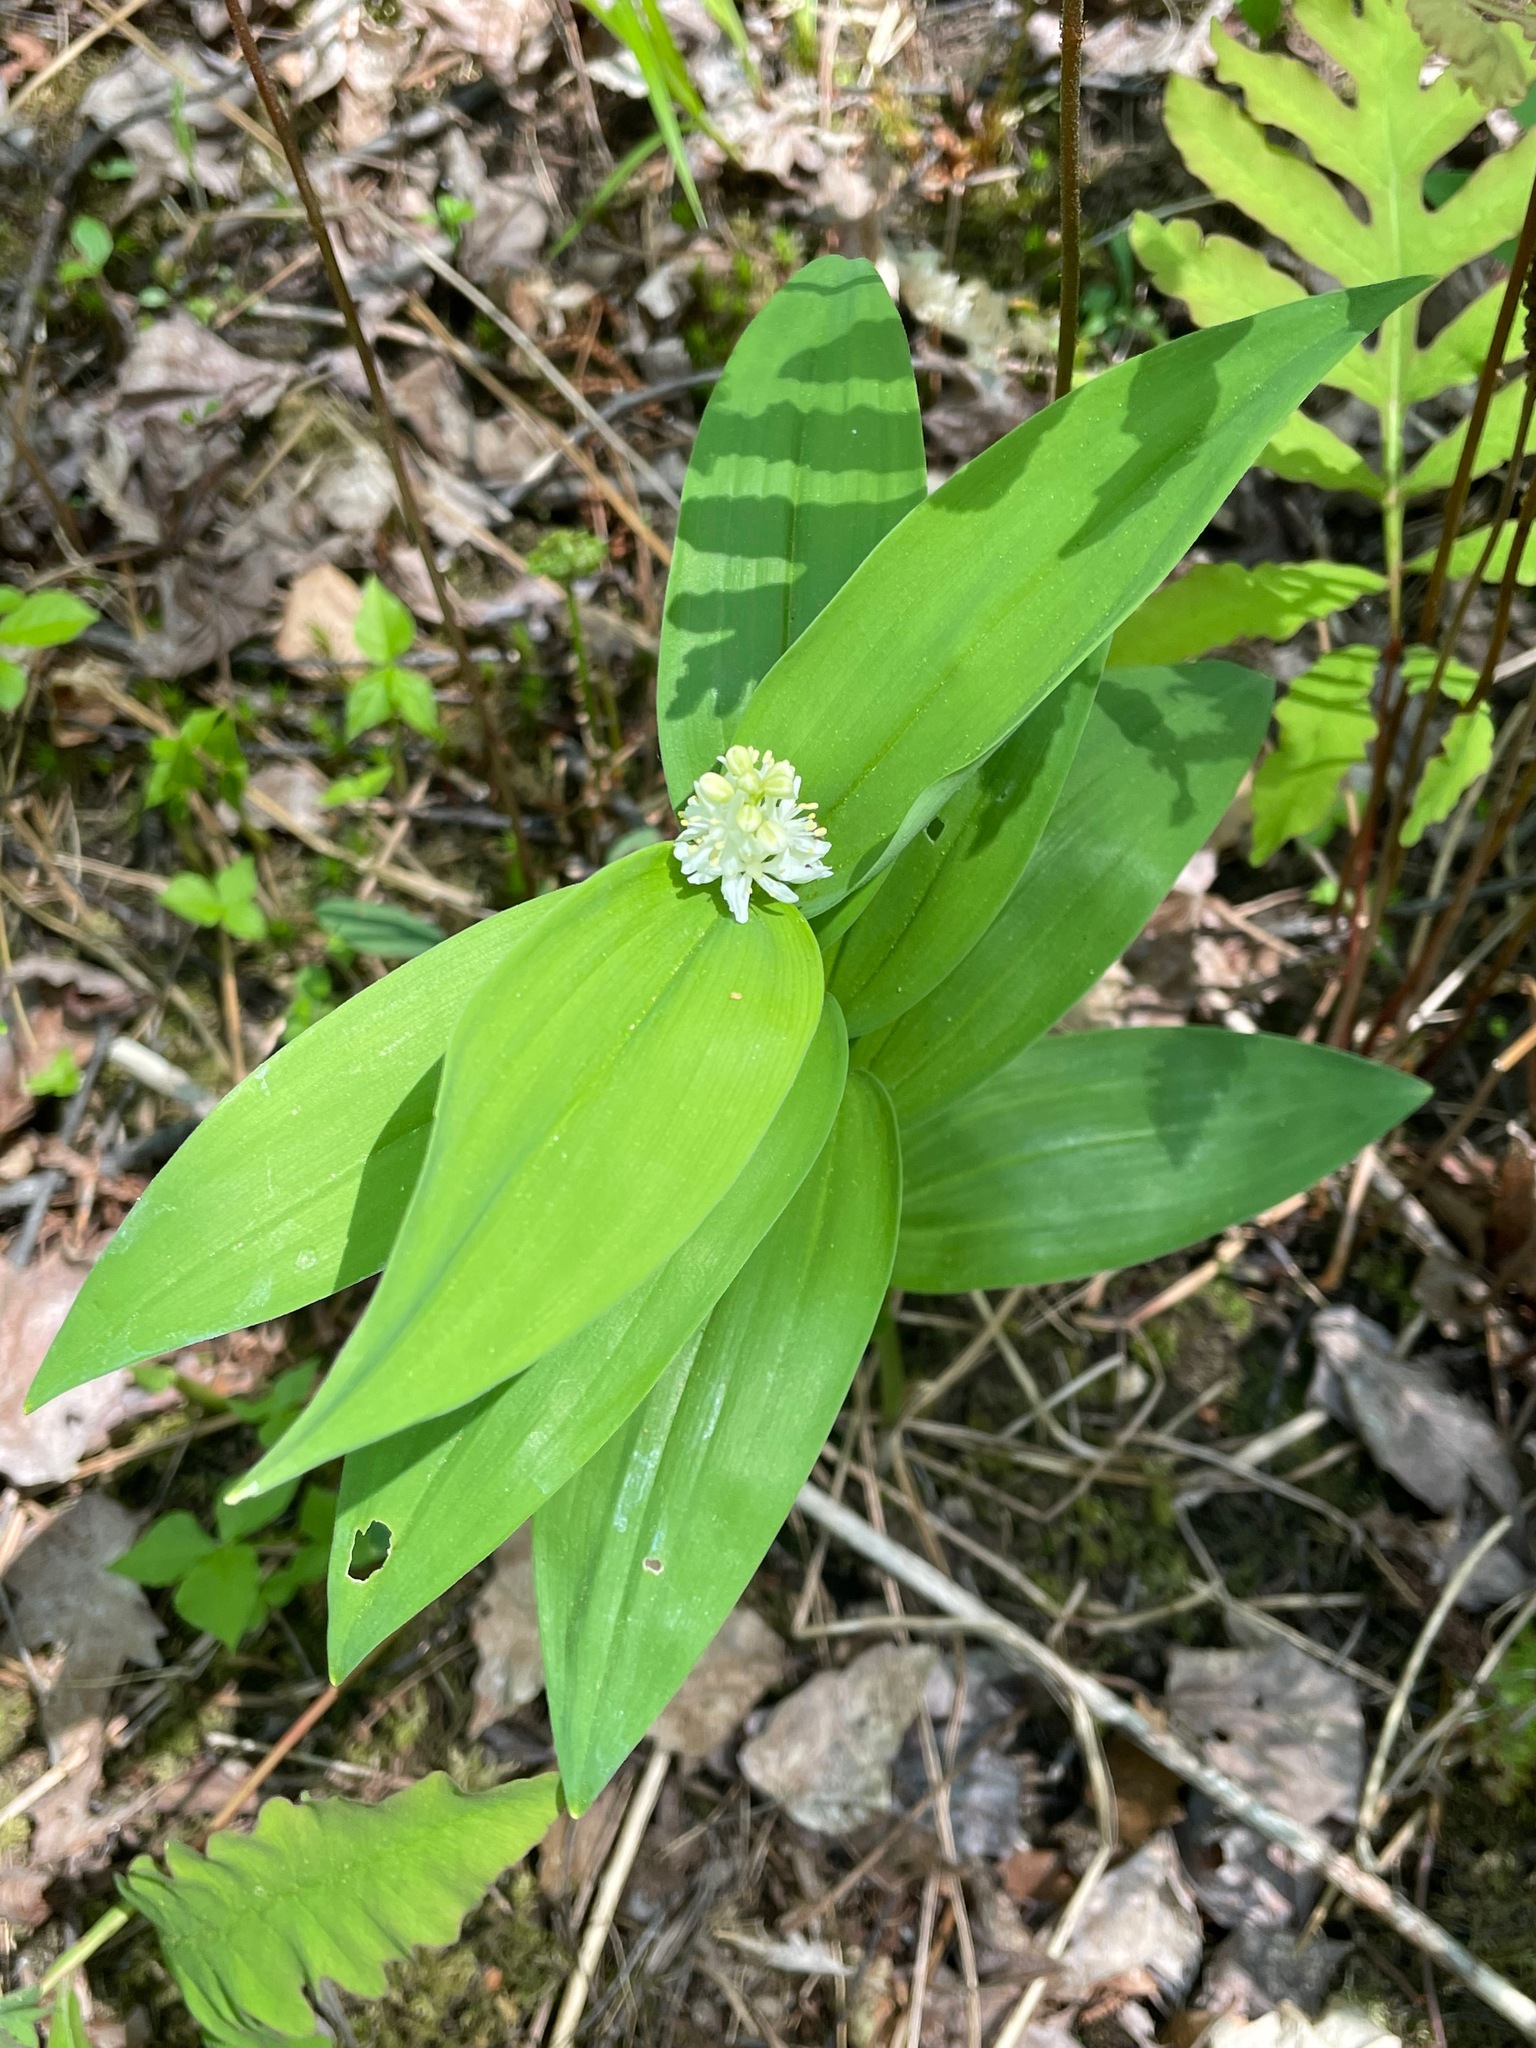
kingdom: Plantae
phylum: Tracheophyta
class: Liliopsida
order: Asparagales
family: Asparagaceae
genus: Maianthemum
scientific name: Maianthemum stellatum
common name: Little false solomon's seal
